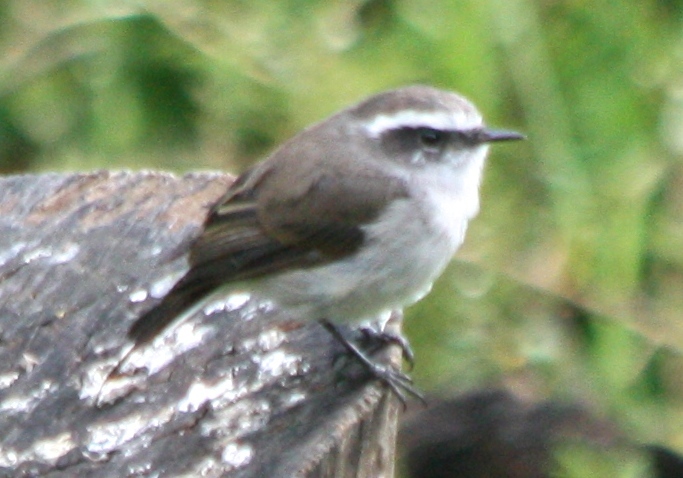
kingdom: Animalia
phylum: Chordata
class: Aves
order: Passeriformes
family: Tyrannidae
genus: Ochthoeca
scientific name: Ochthoeca leucophrys
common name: White-browed chat-tyrant
